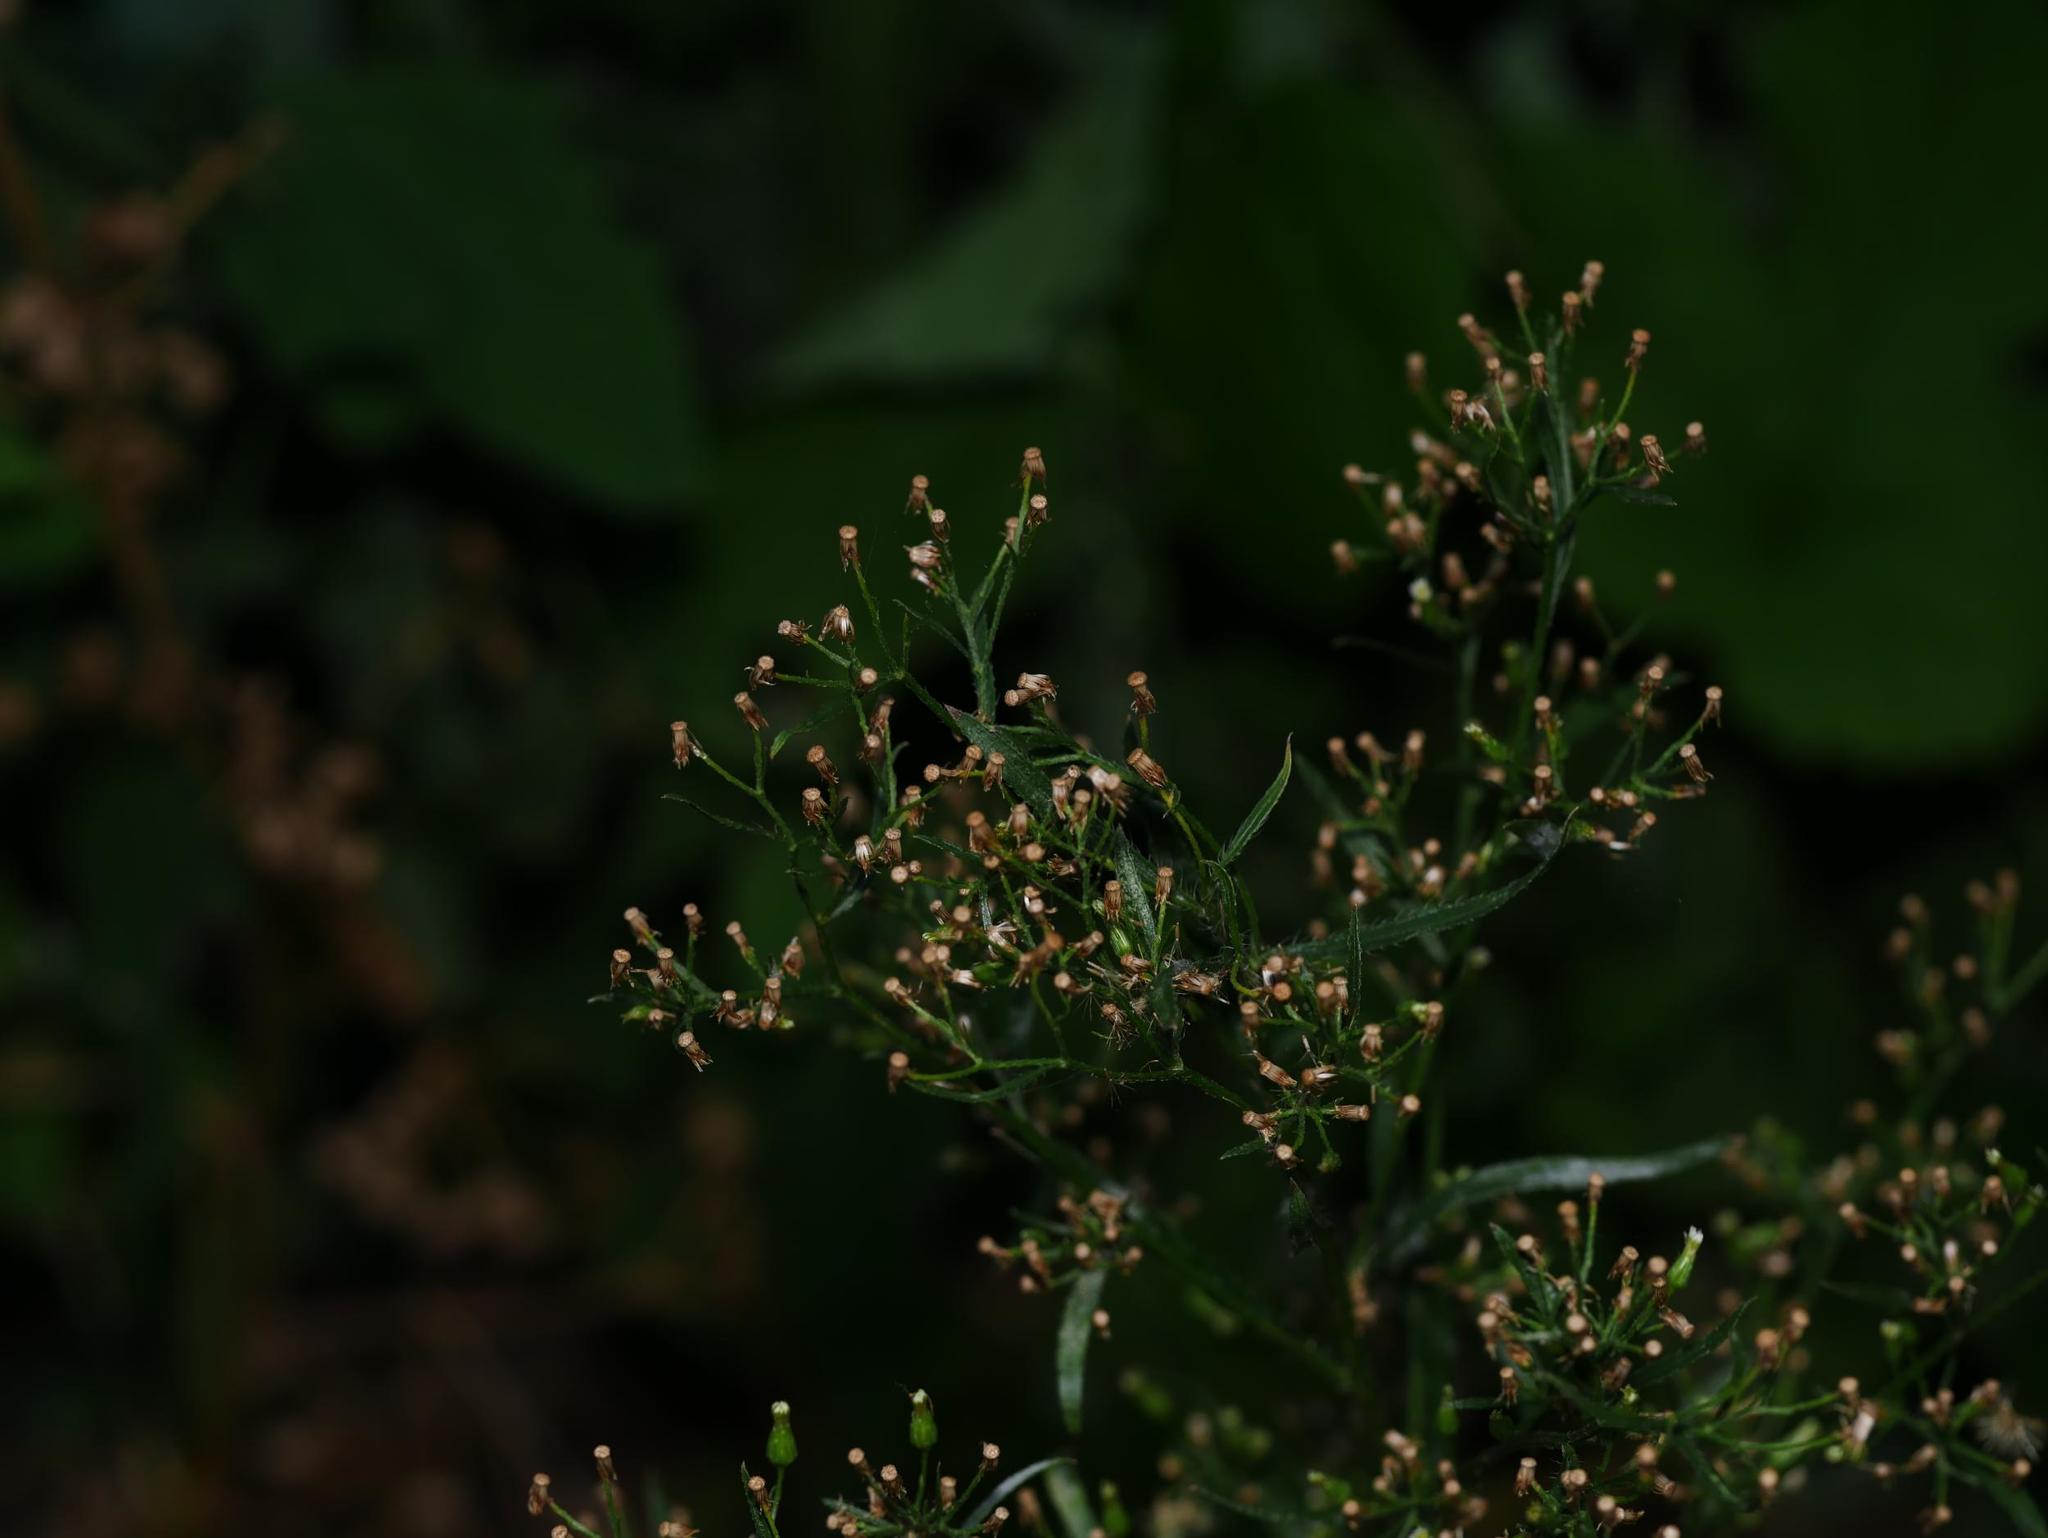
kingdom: Plantae
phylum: Tracheophyta
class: Magnoliopsida
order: Asterales
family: Asteraceae
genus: Erigeron
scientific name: Erigeron canadensis
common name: Canadian fleabane
